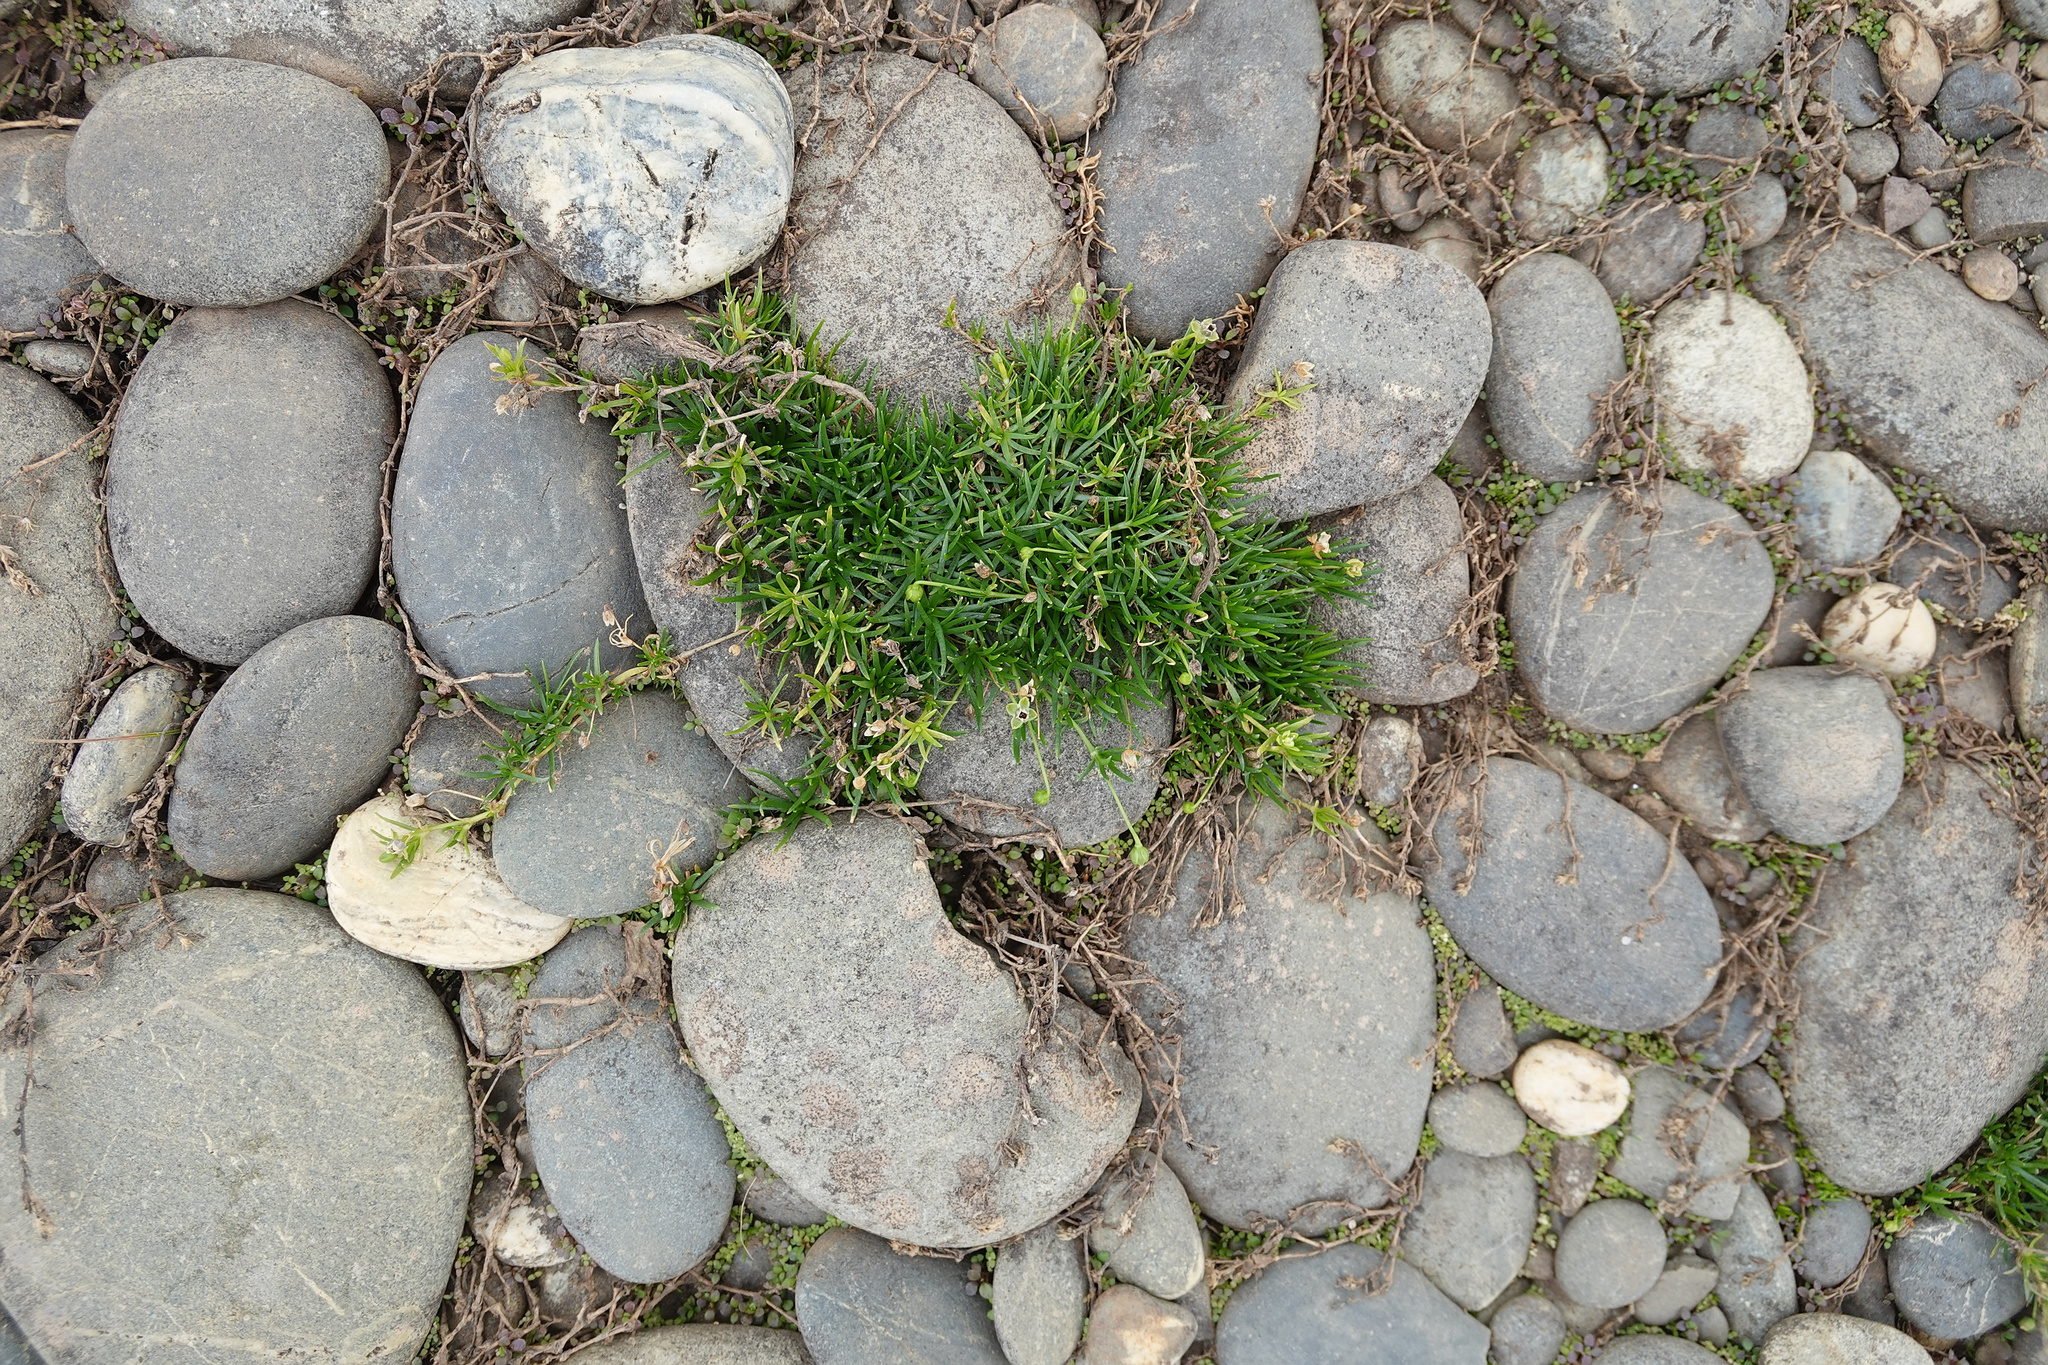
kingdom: Plantae
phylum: Tracheophyta
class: Magnoliopsida
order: Caryophyllales
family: Caryophyllaceae
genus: Sagina
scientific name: Sagina procumbens
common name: Procumbent pearlwort
